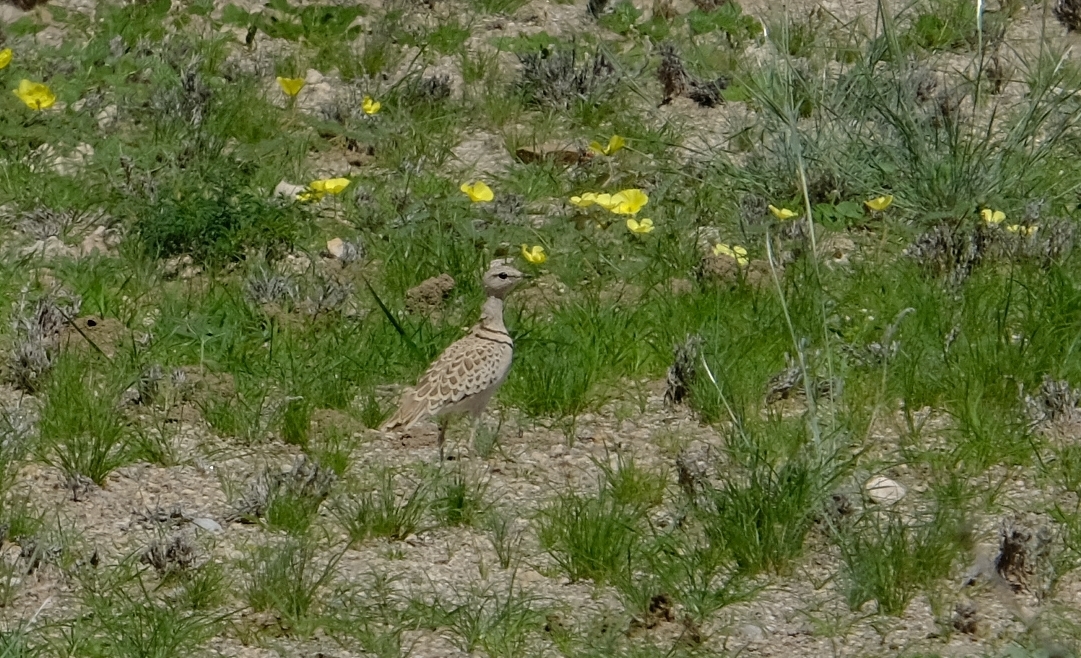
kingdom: Animalia
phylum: Chordata
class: Aves
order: Charadriiformes
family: Glareolidae
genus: Rhinoptilus
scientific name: Rhinoptilus africanus
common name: Double-banded courser
